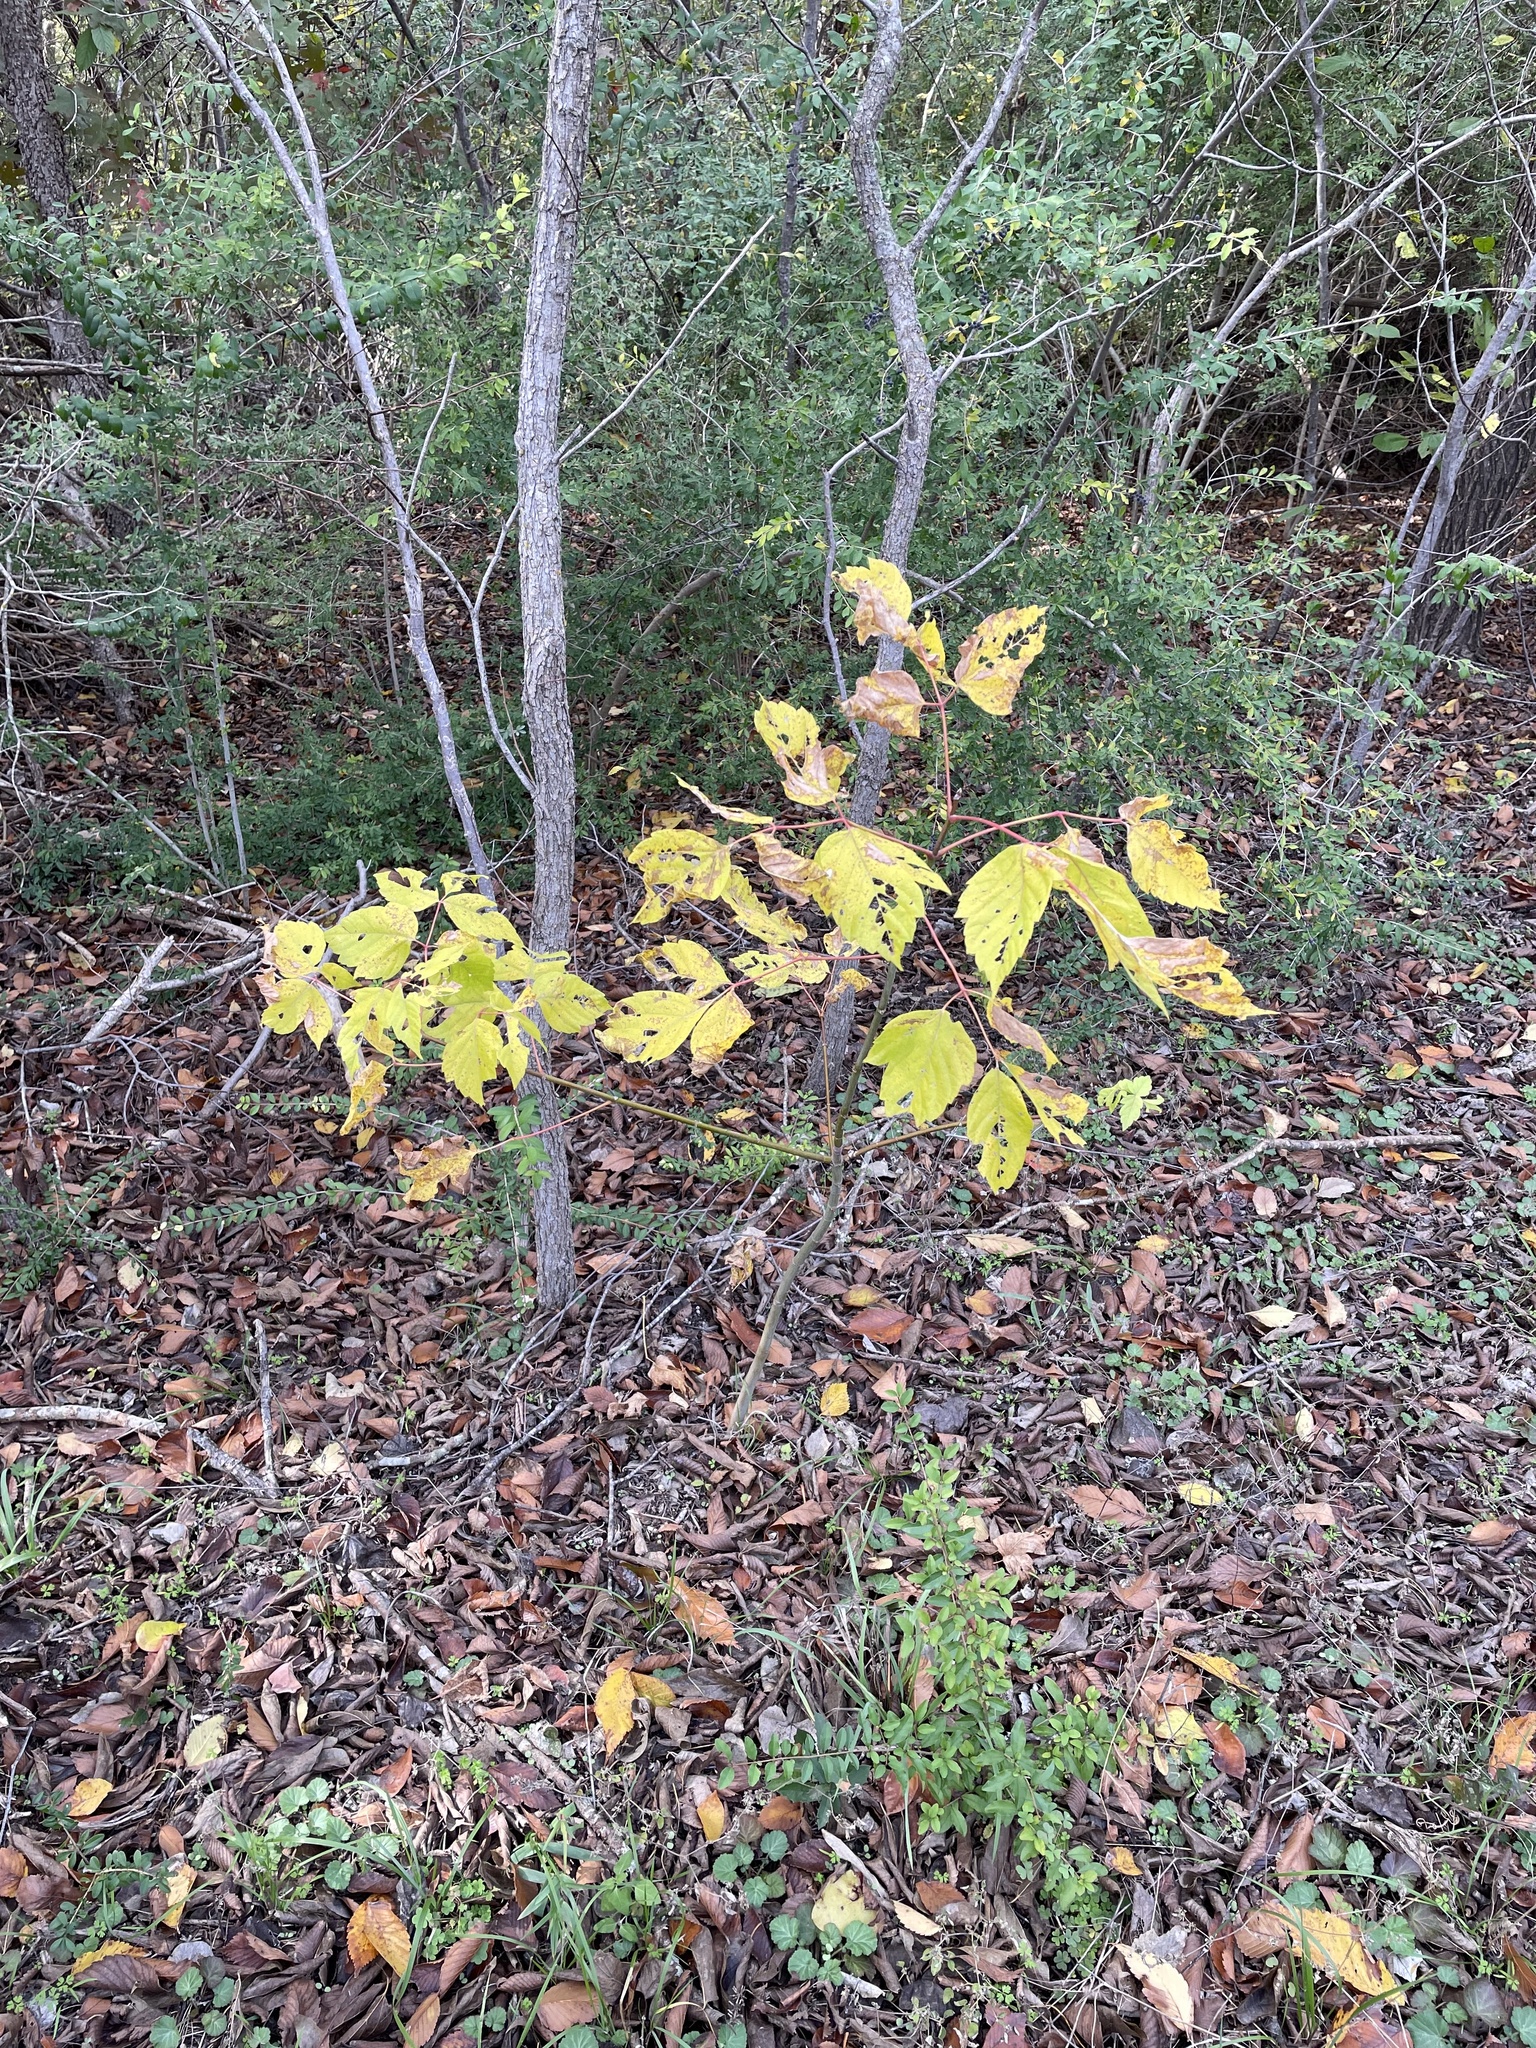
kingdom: Plantae
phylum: Tracheophyta
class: Magnoliopsida
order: Sapindales
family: Sapindaceae
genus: Acer
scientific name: Acer negundo
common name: Ashleaf maple
